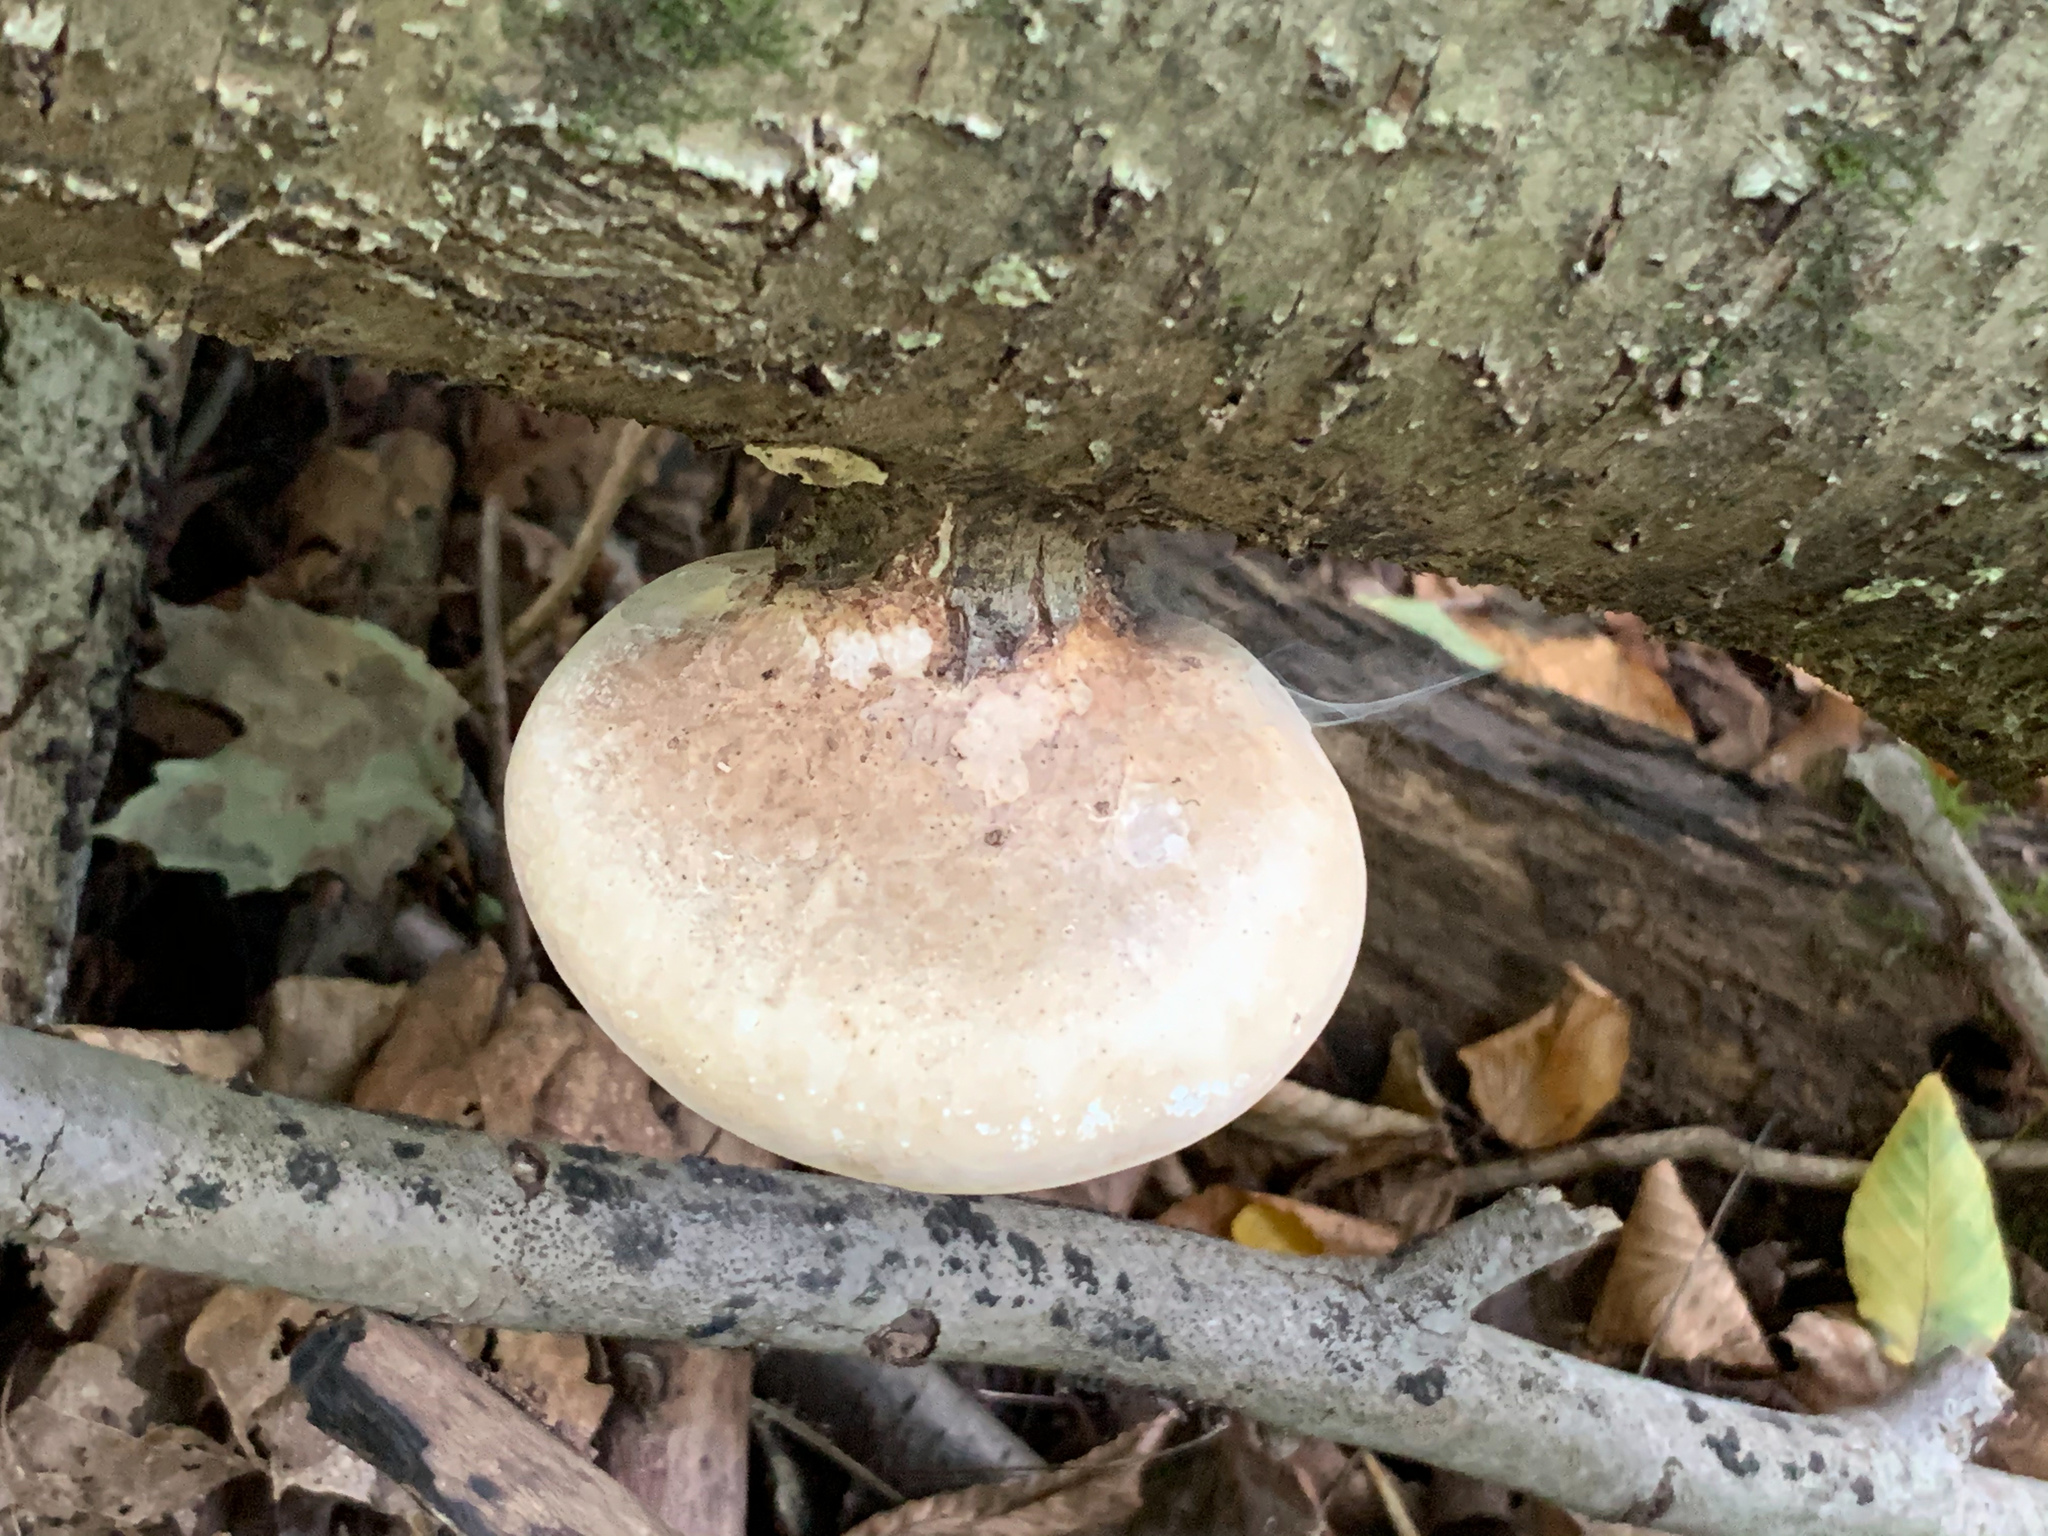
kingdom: Fungi
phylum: Basidiomycota
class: Agaricomycetes
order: Polyporales
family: Fomitopsidaceae
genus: Fomitopsis
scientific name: Fomitopsis betulina
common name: Birch polypore
